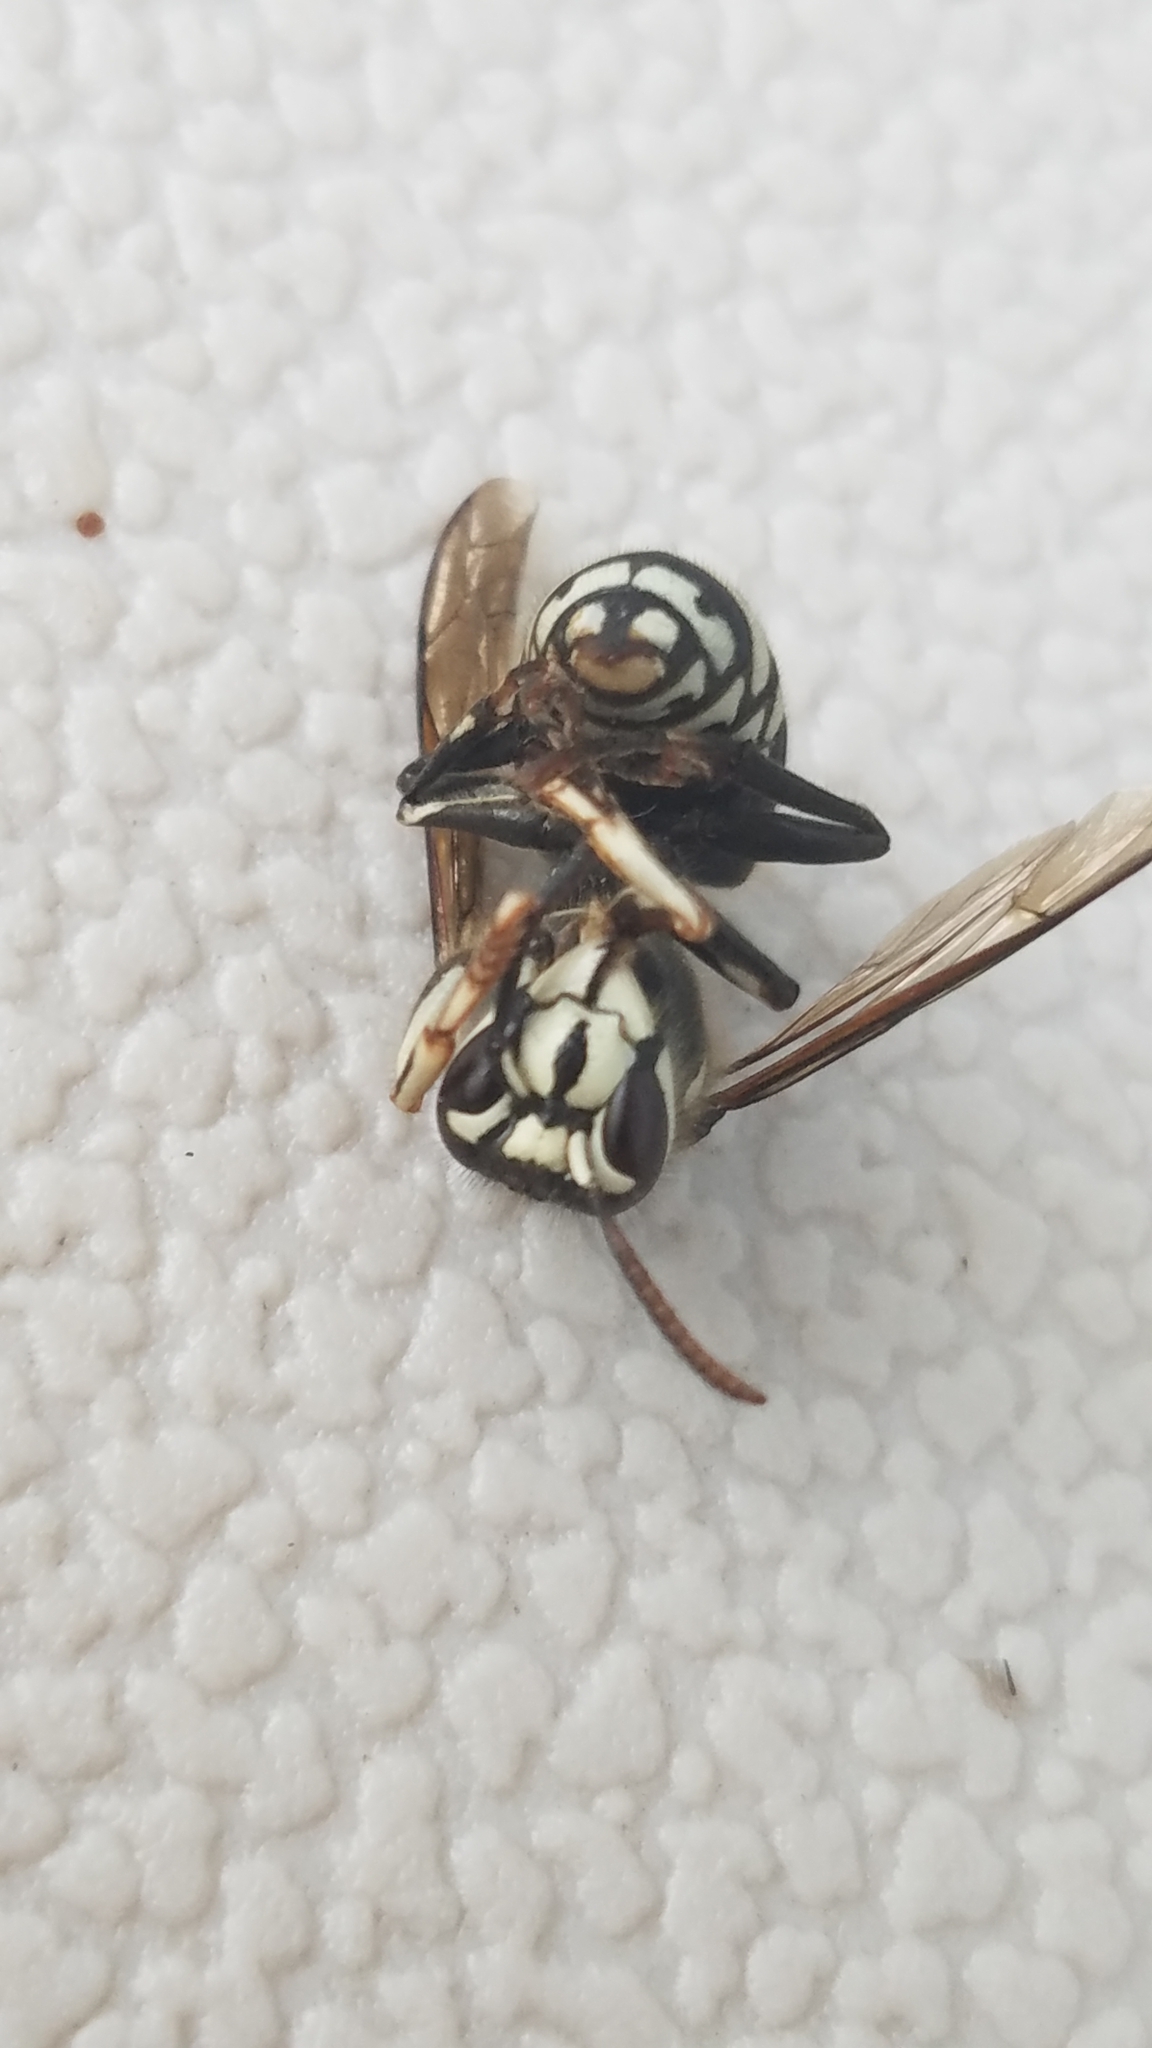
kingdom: Animalia
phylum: Arthropoda
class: Insecta
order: Hymenoptera
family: Vespidae
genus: Dolichovespula
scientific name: Dolichovespula maculata
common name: Bald-faced hornet
